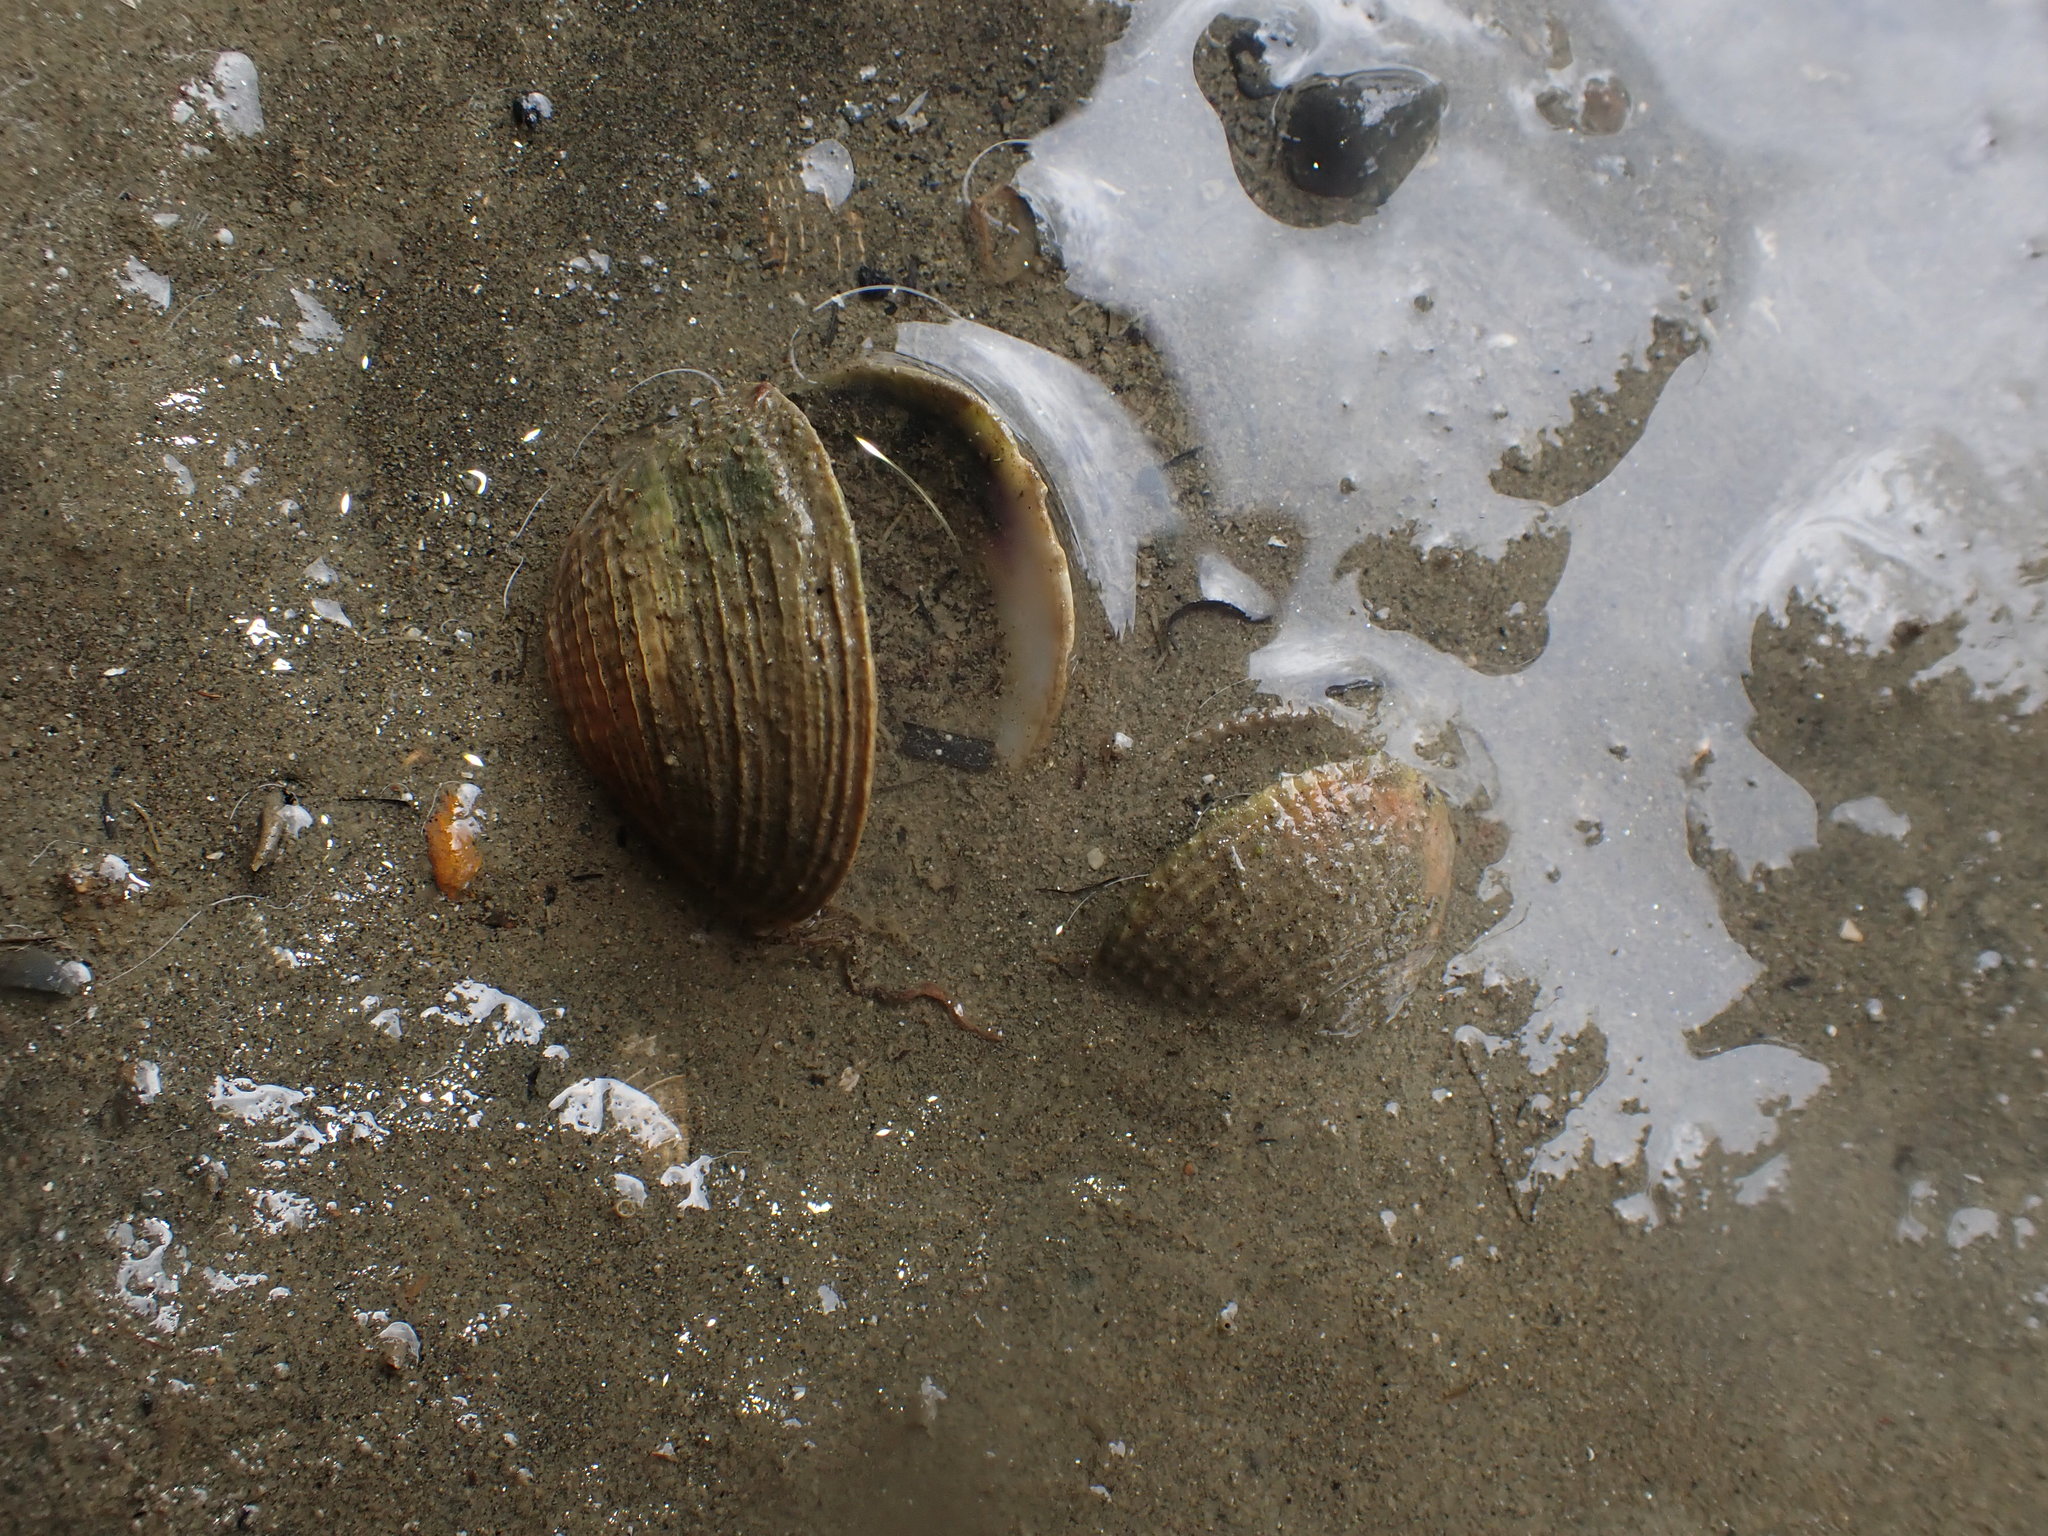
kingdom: Animalia
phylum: Mollusca
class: Bivalvia
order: Venerida
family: Veneridae
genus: Austrovenus
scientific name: Austrovenus stutchburyi
